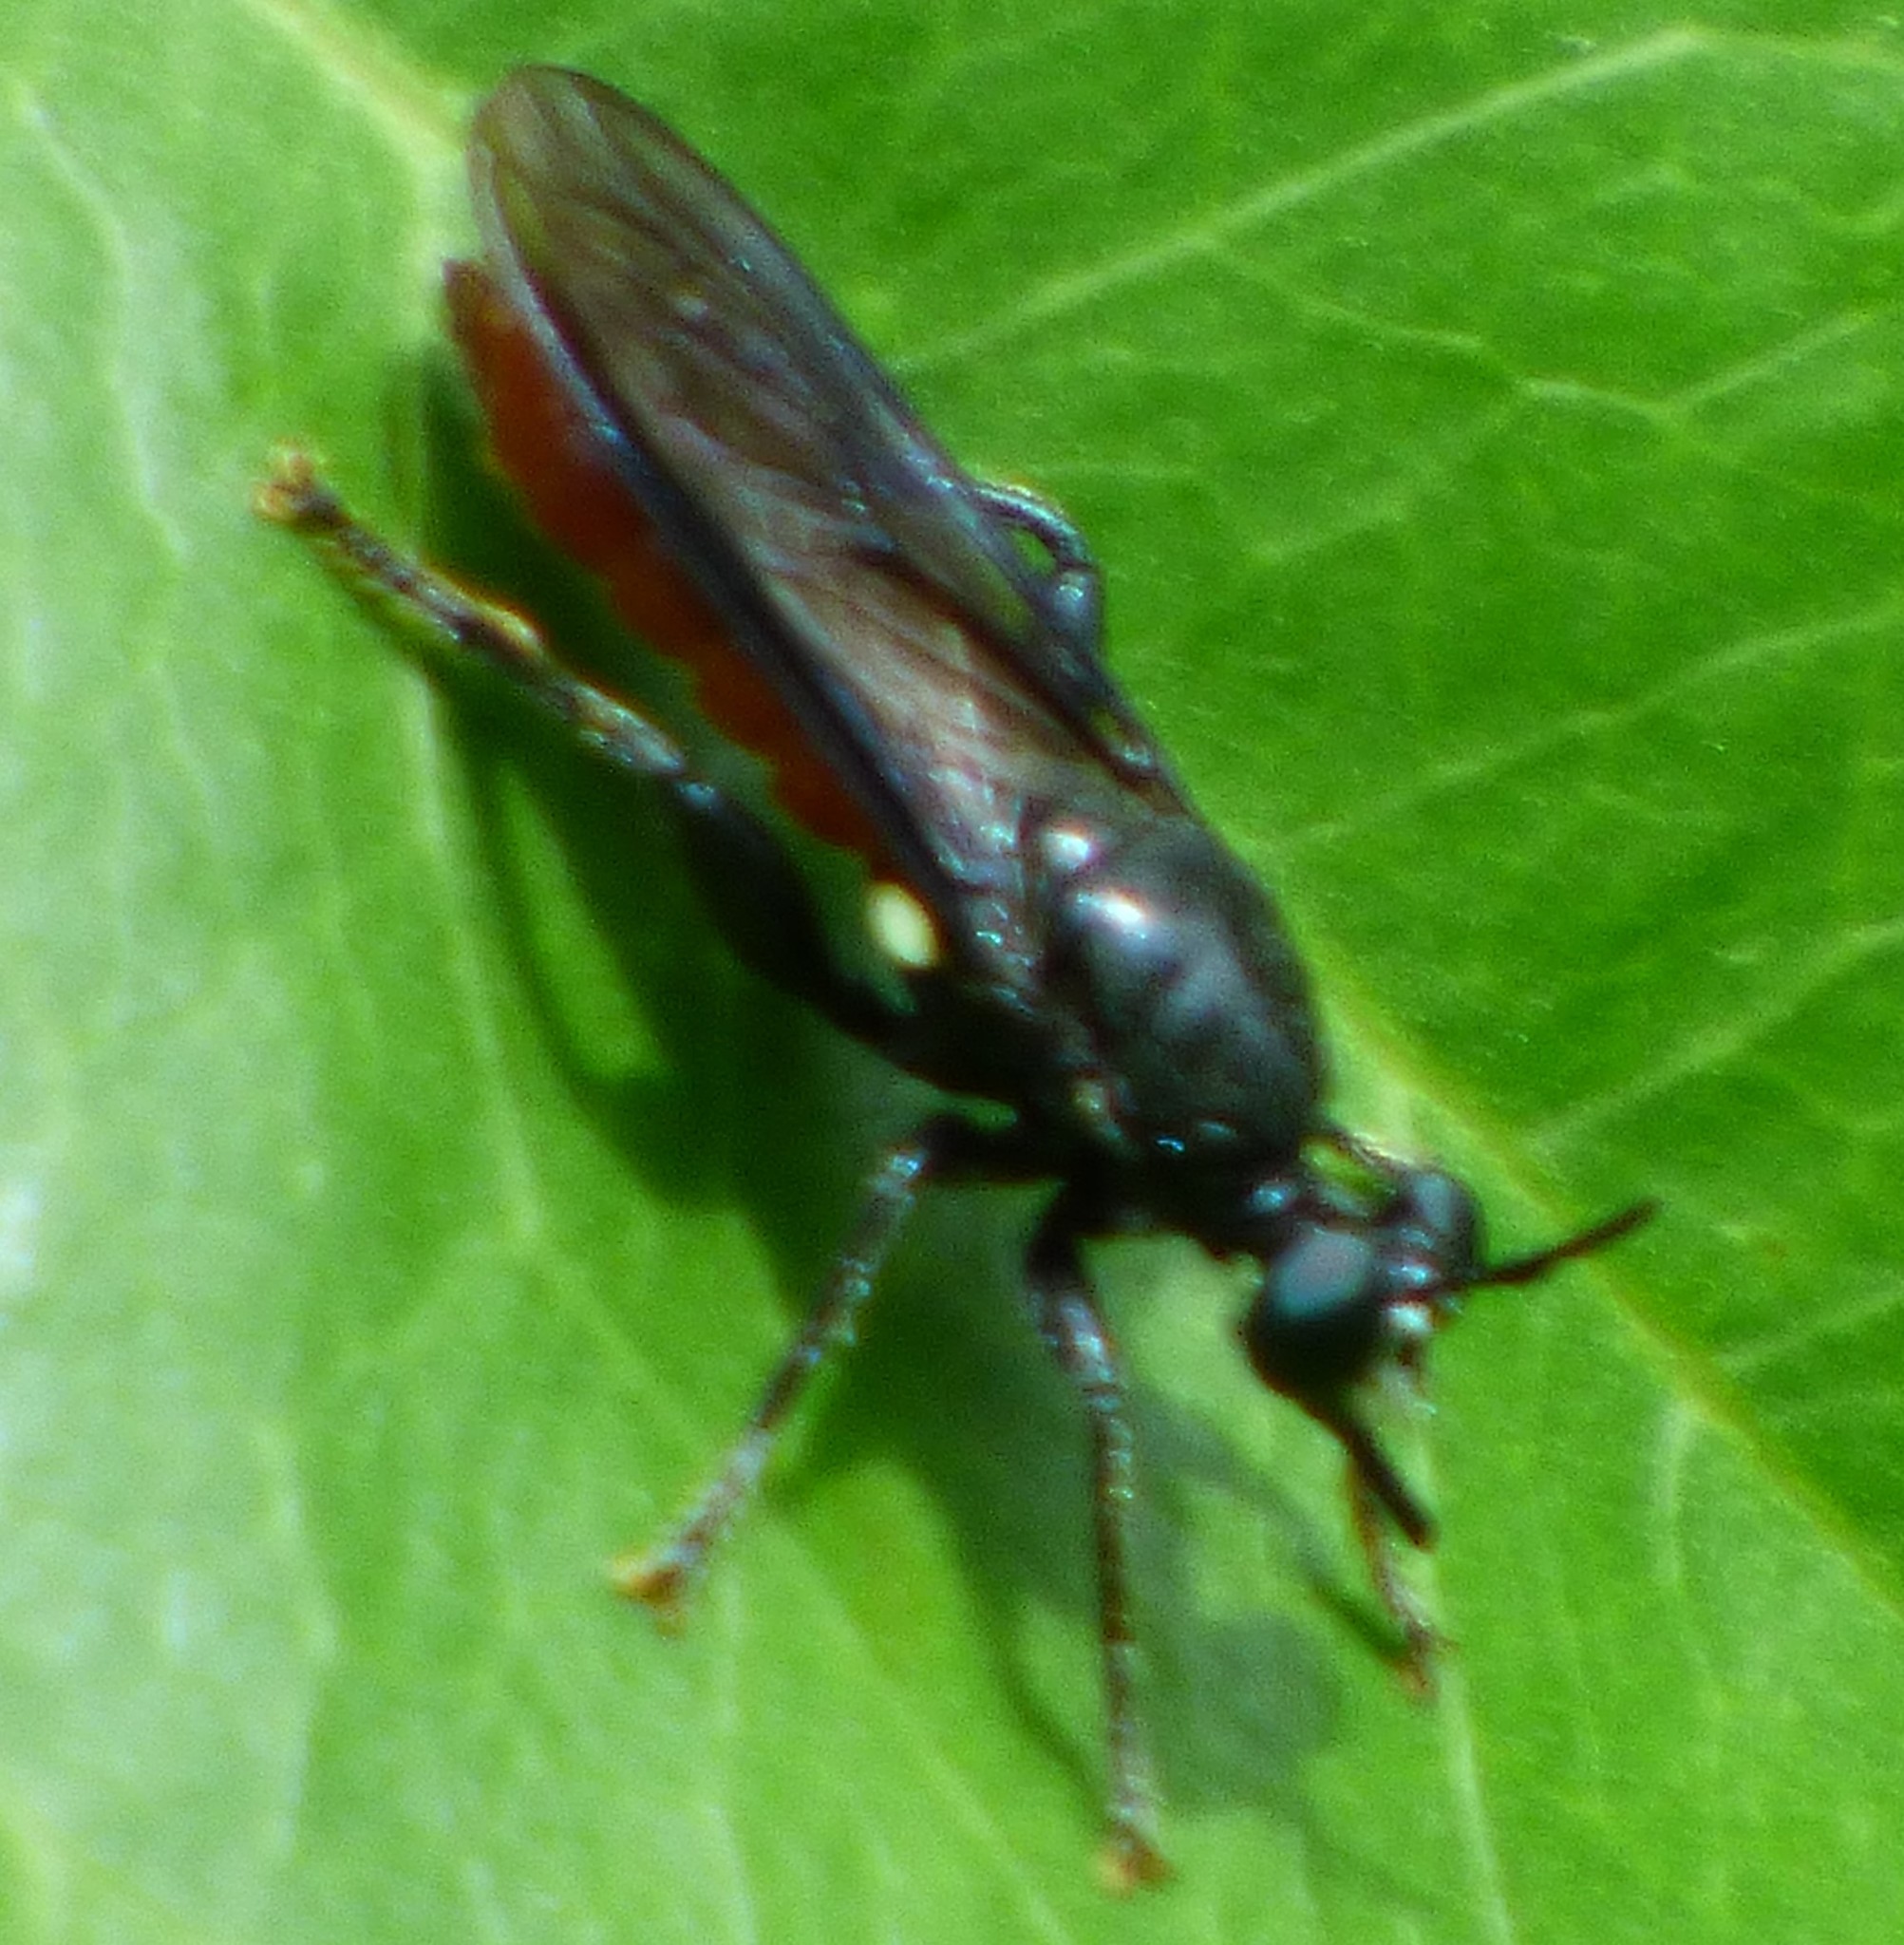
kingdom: Animalia
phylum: Arthropoda
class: Insecta
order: Diptera
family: Asilidae
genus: Lampria
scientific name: Lampria bicolor
